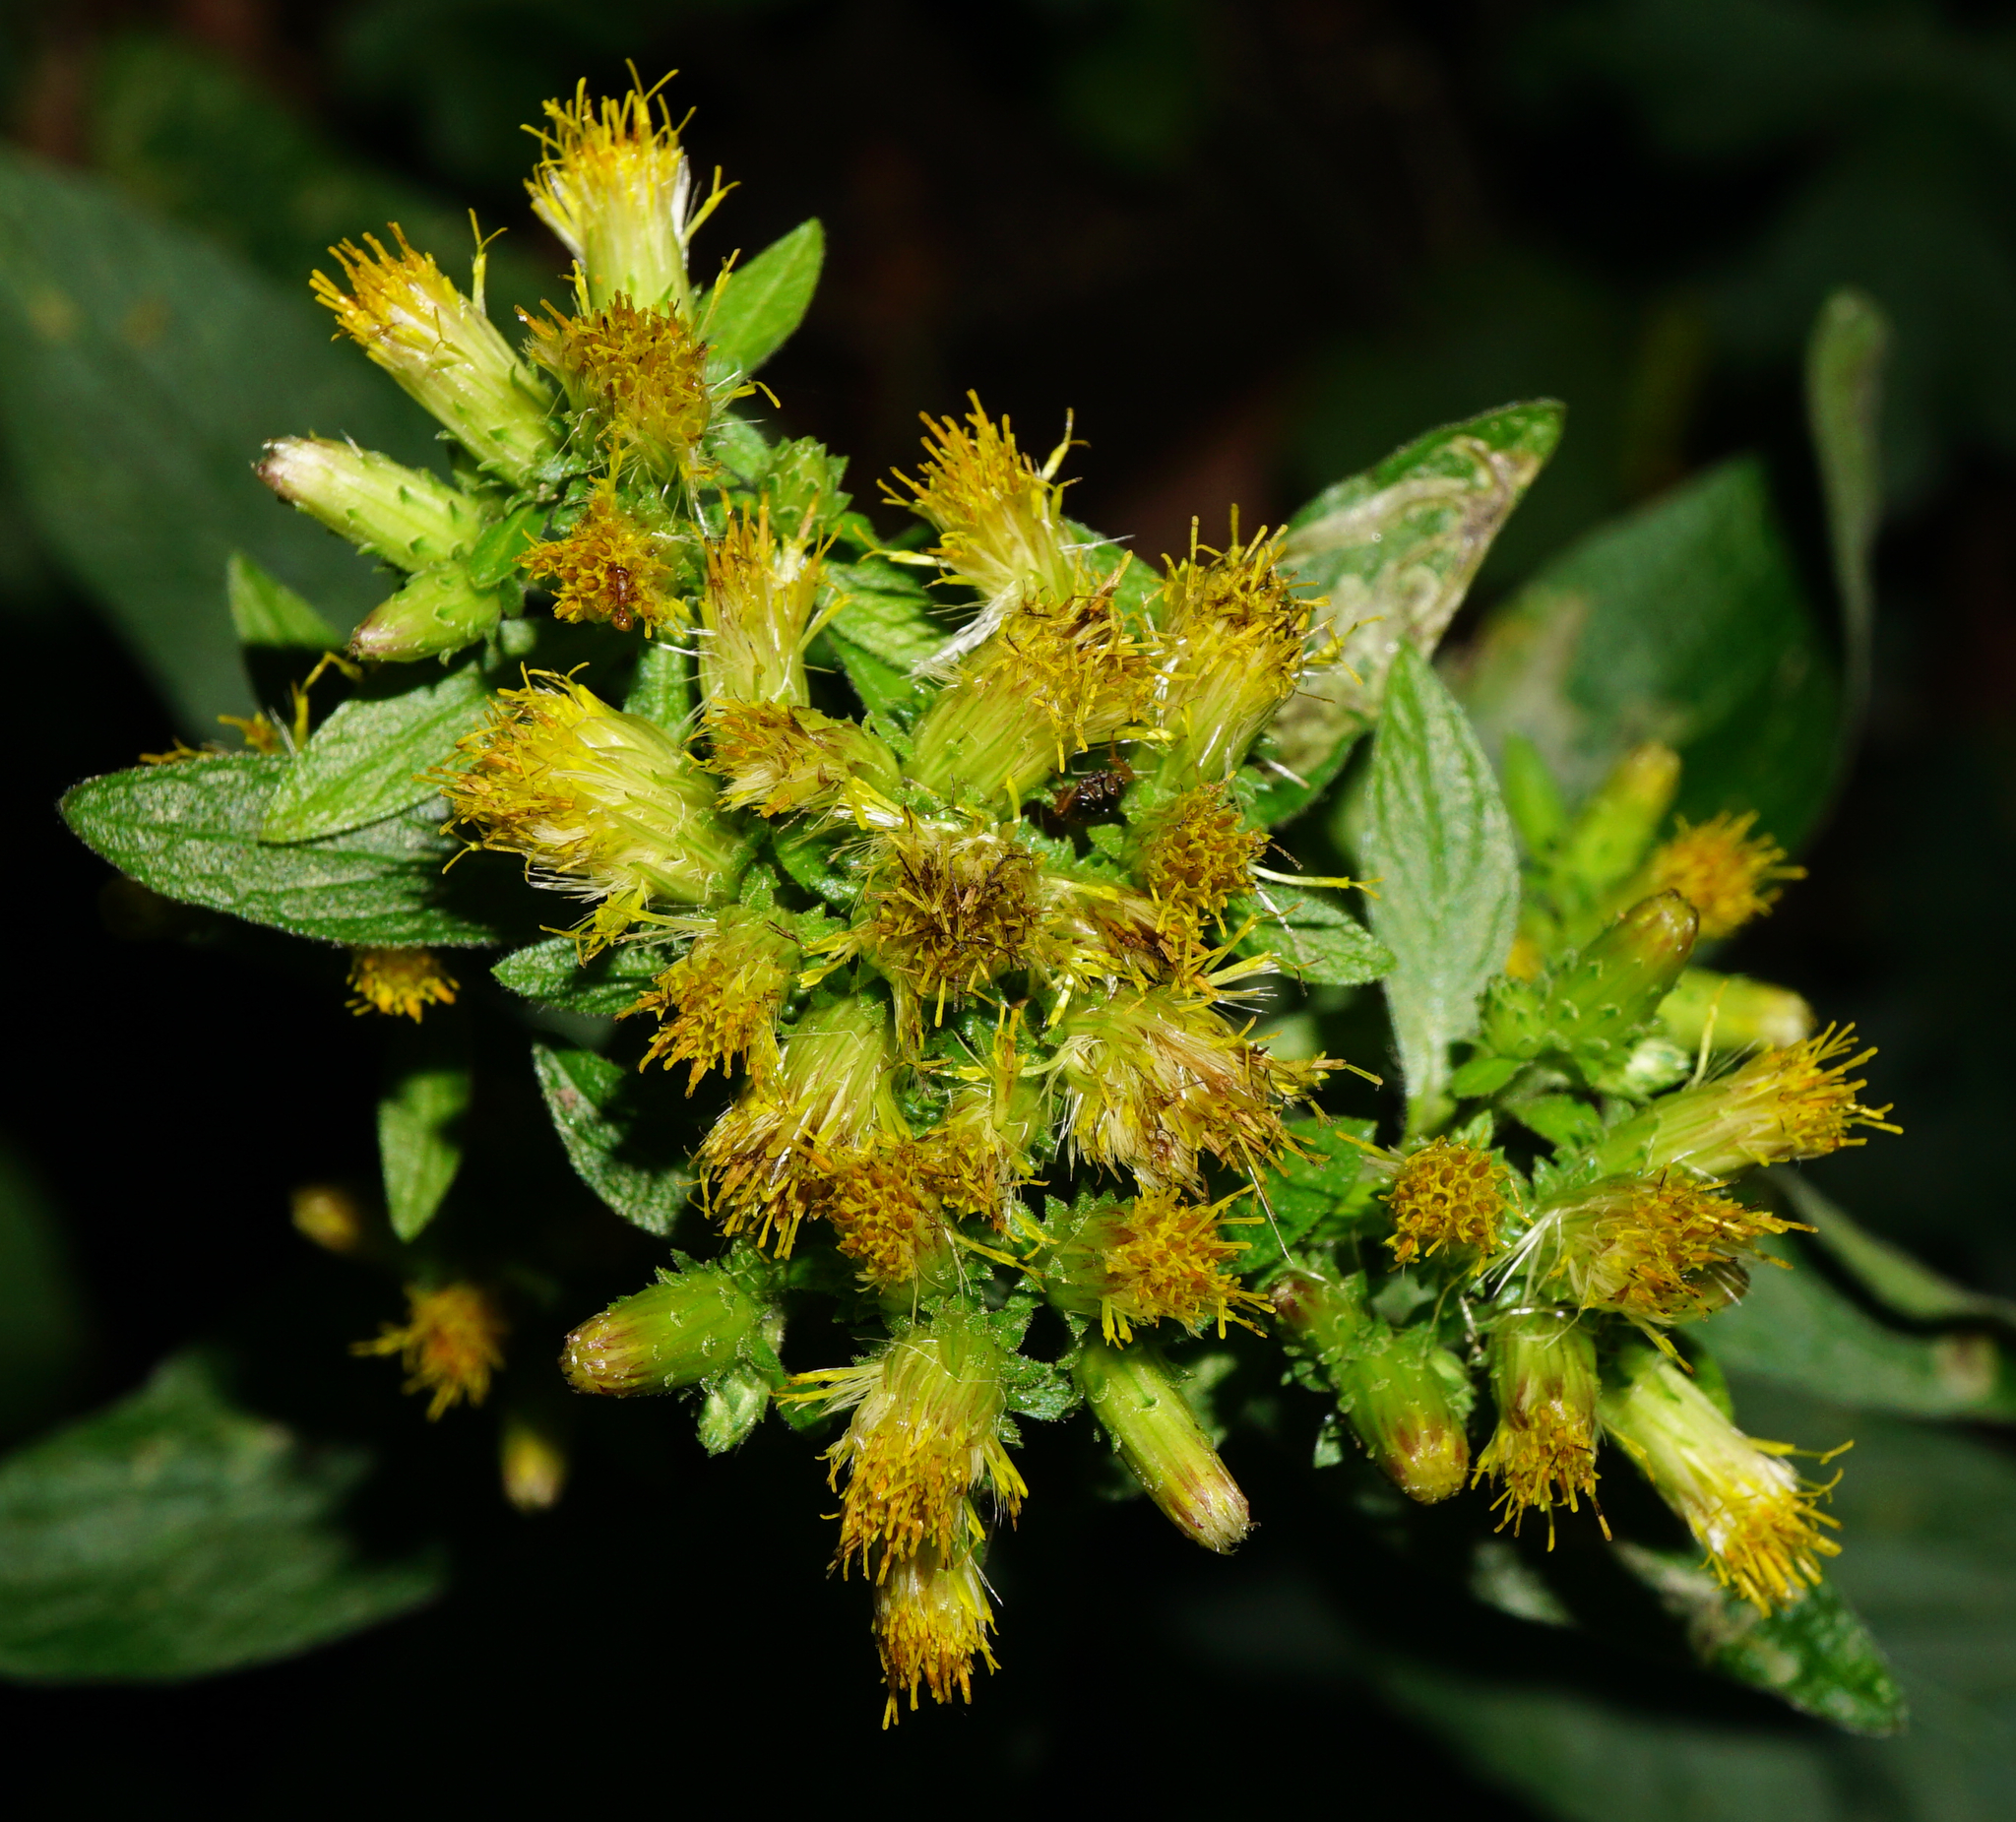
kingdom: Plantae
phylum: Tracheophyta
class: Magnoliopsida
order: Asterales
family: Asteraceae
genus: Pentanema
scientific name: Pentanema squarrosum
